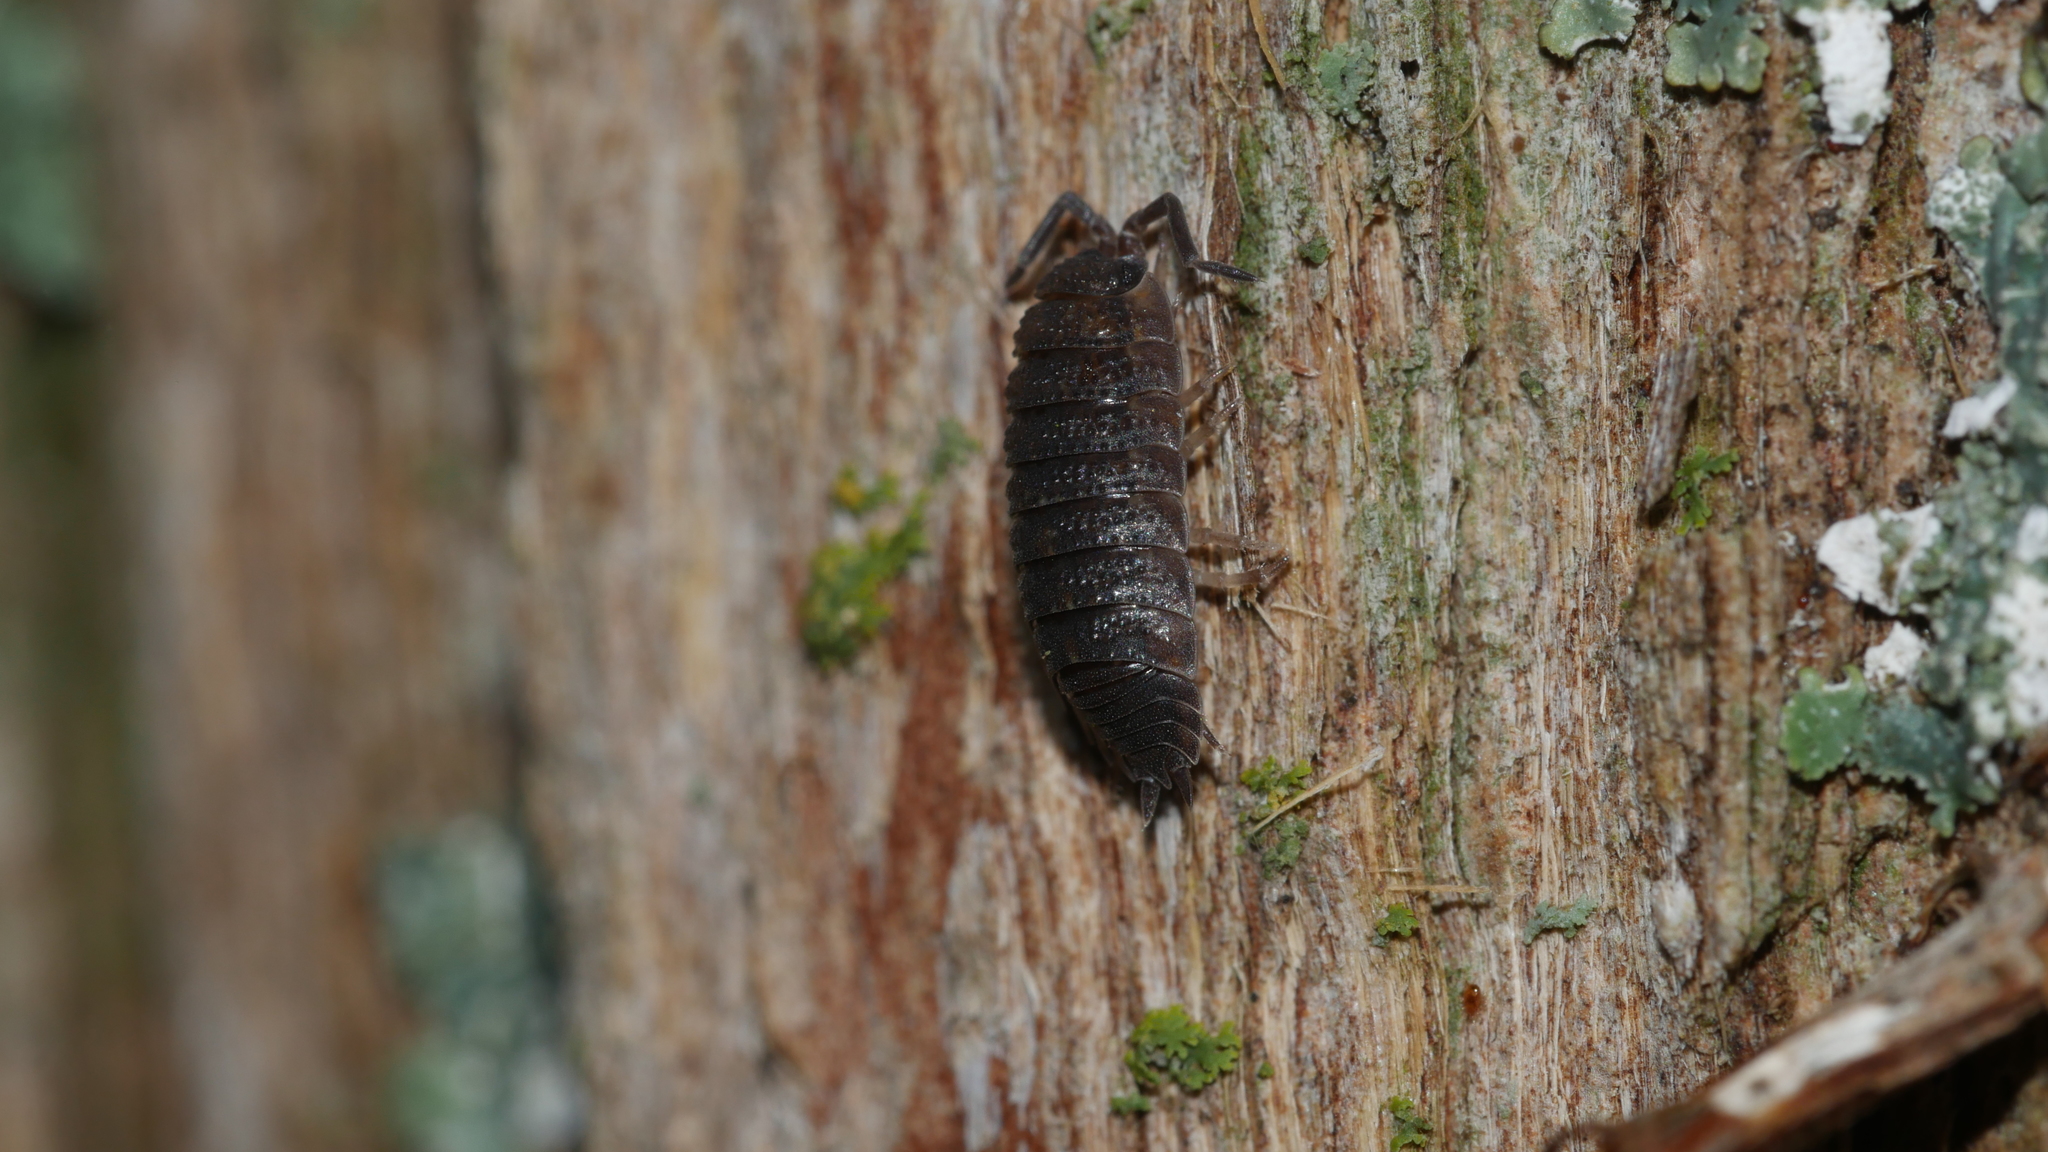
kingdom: Animalia
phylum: Arthropoda
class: Malacostraca
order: Isopoda
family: Porcellionidae
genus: Porcellio
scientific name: Porcellio scaber
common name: Common rough woodlouse
